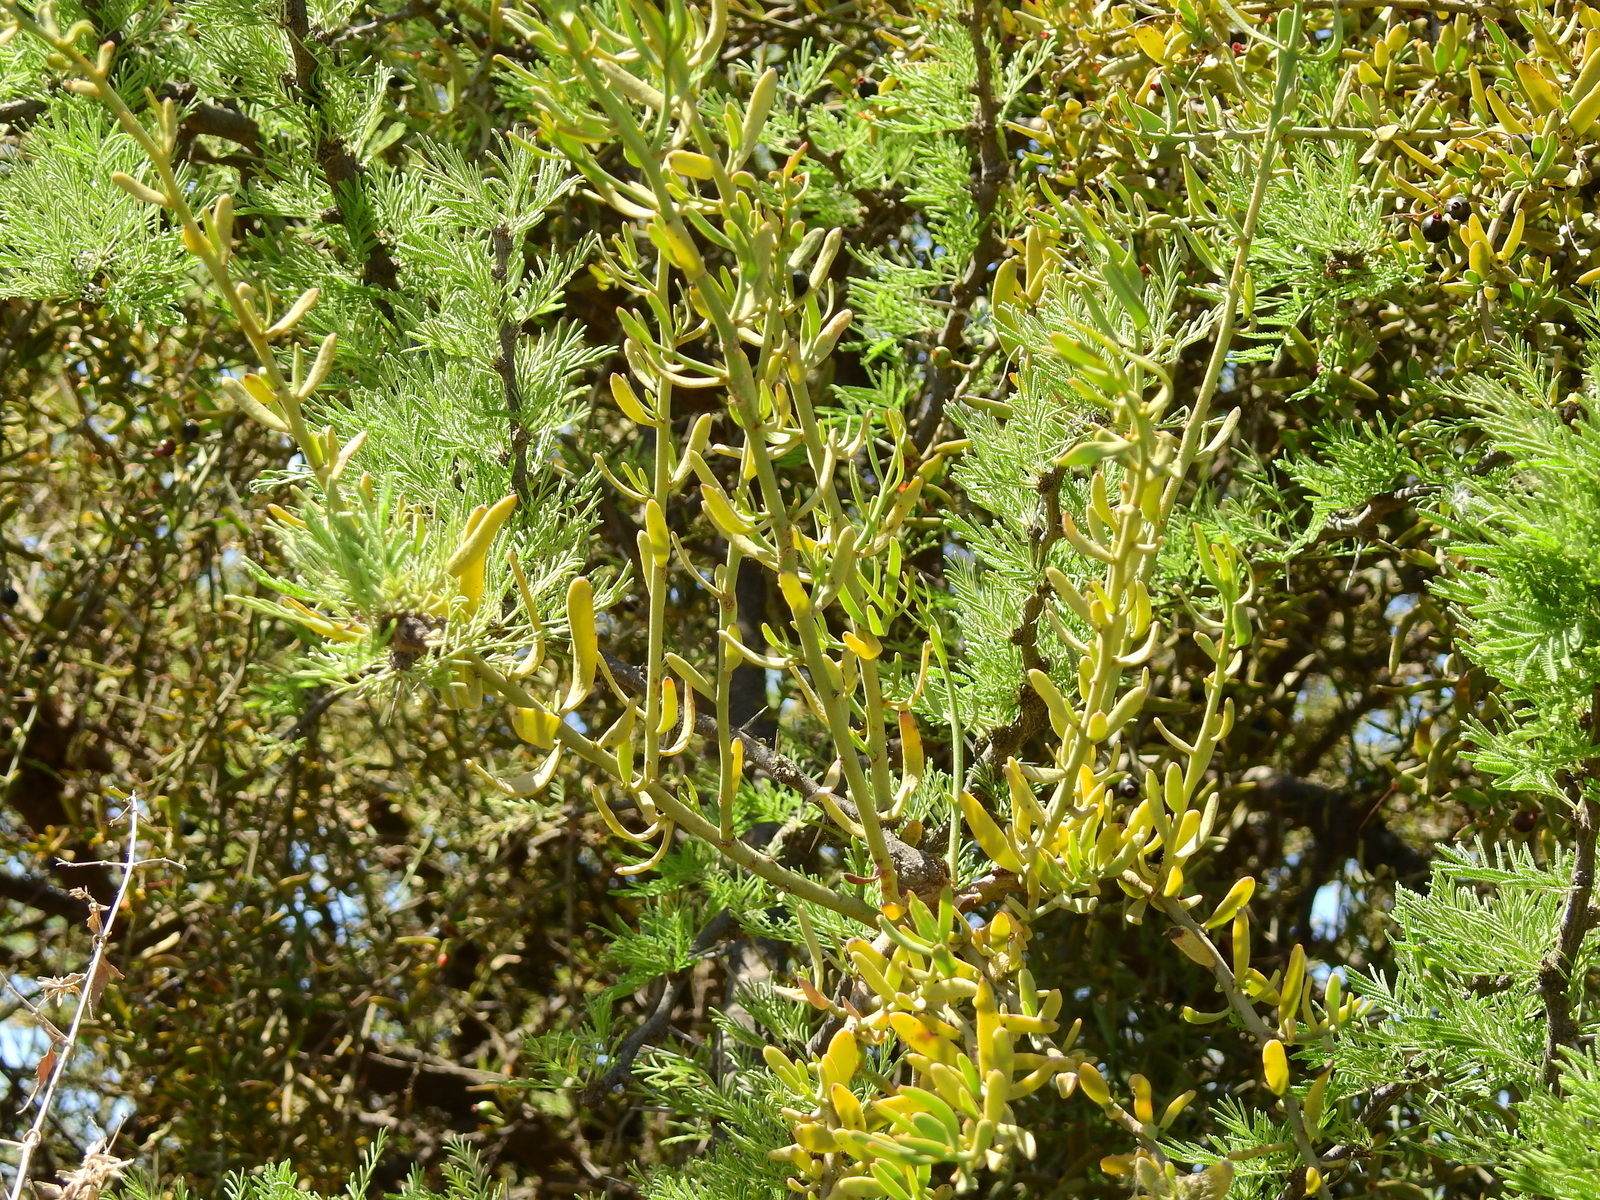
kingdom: Plantae
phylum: Tracheophyta
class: Magnoliopsida
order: Santalales
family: Loranthaceae
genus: Ligaria
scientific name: Ligaria cuneifolia
